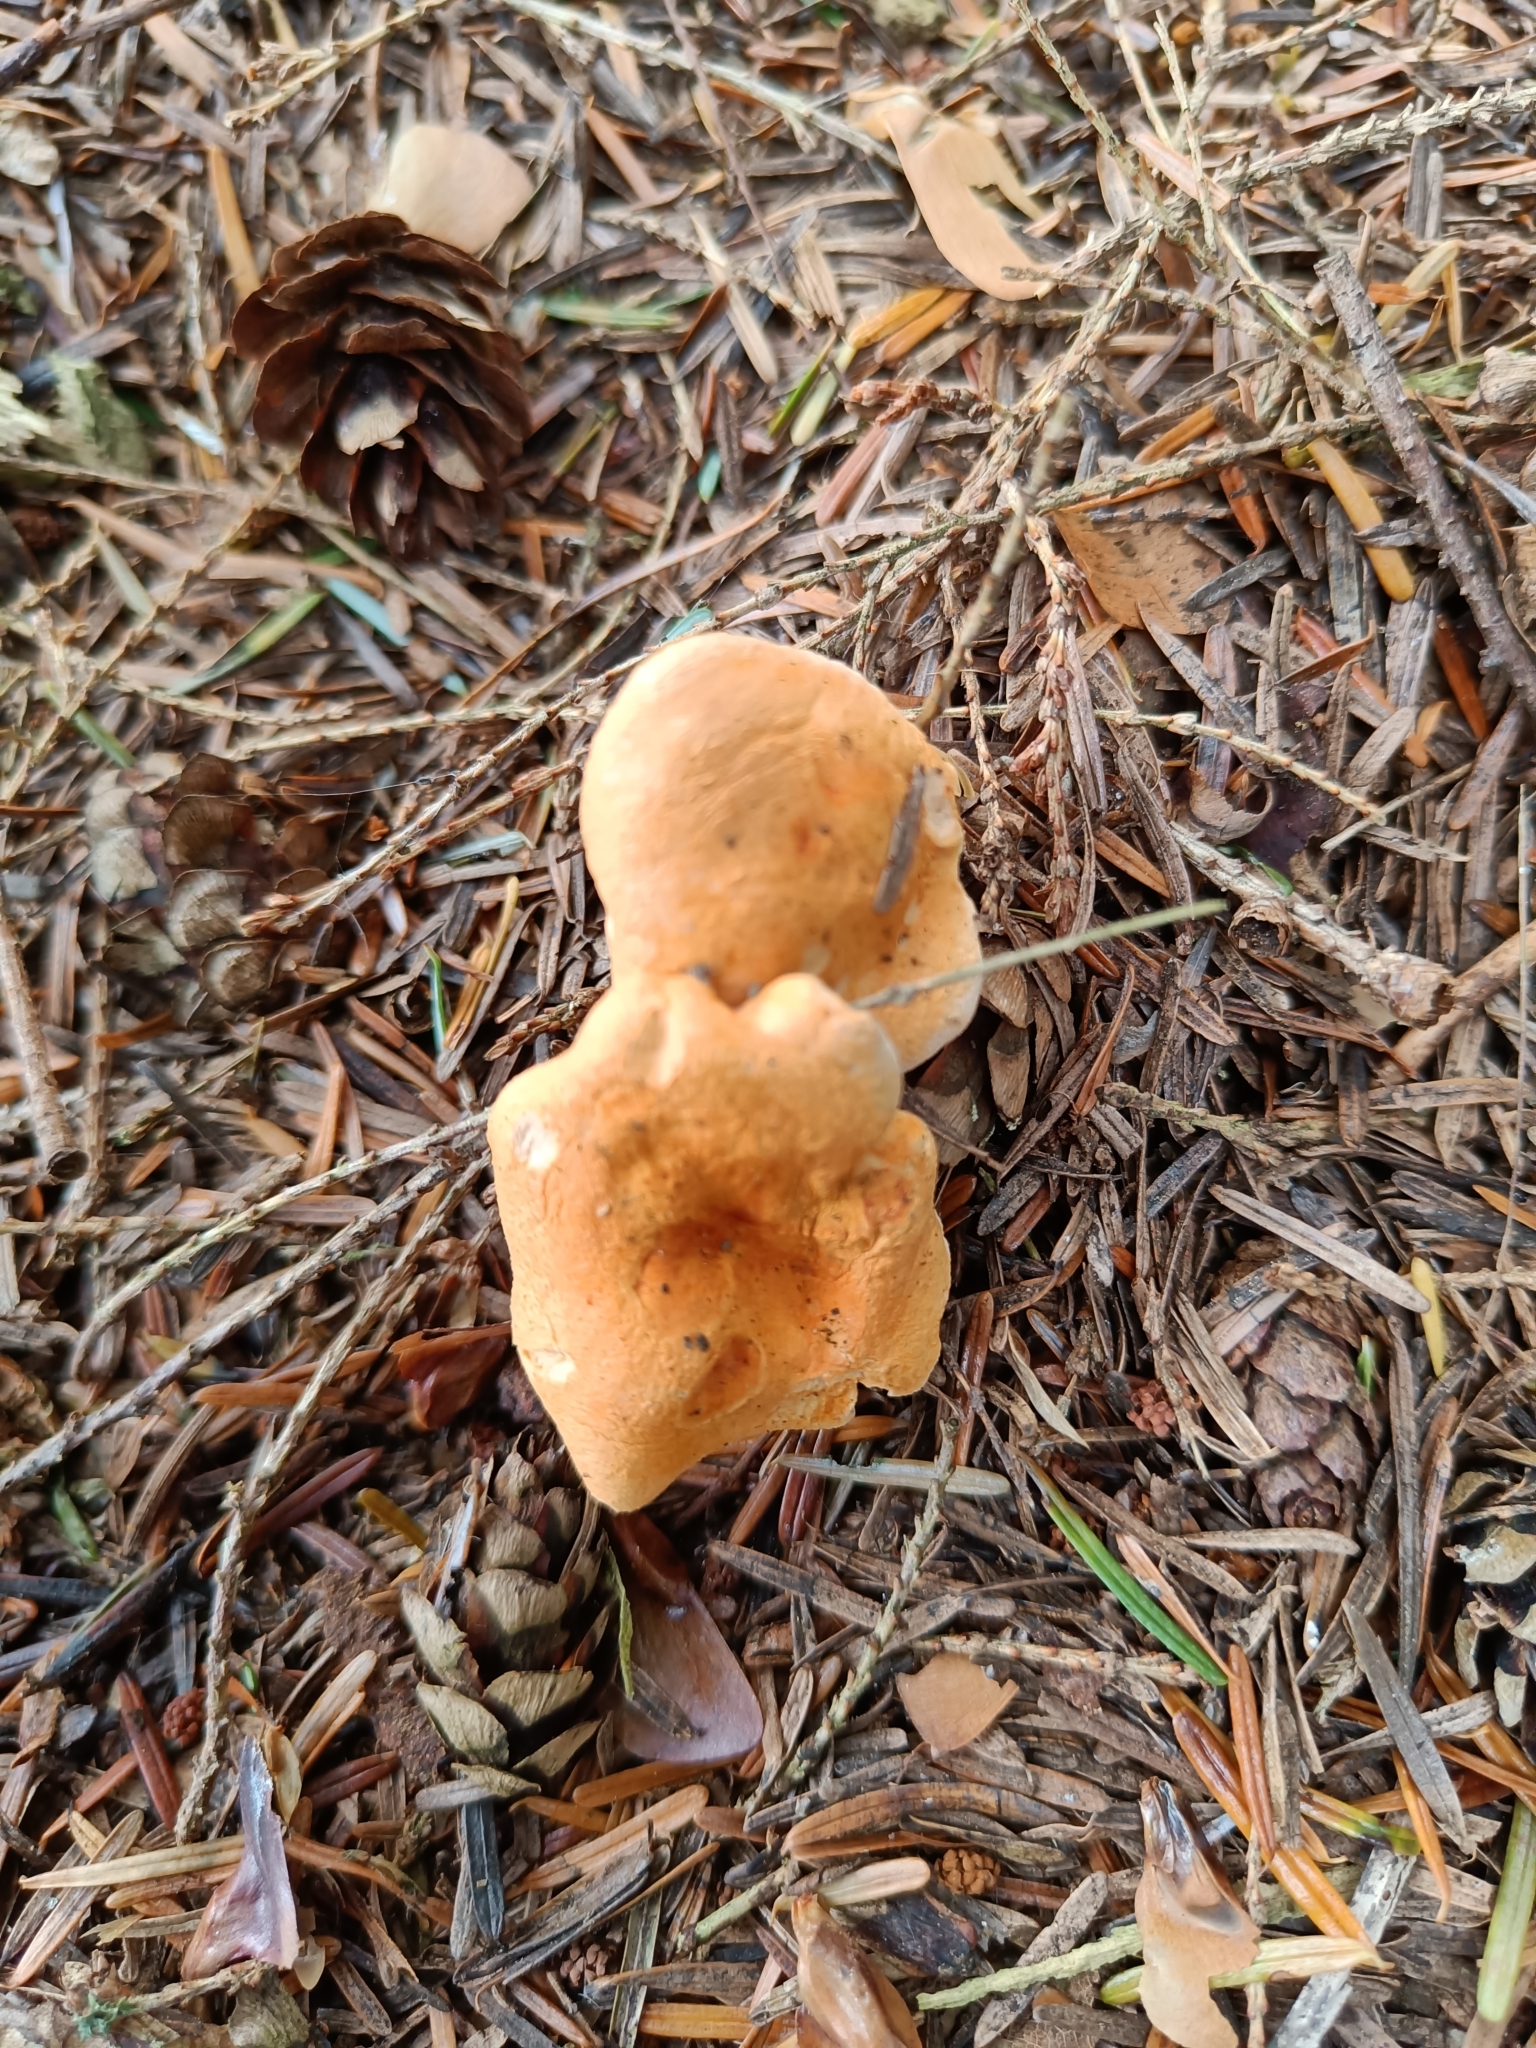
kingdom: Fungi
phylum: Basidiomycota
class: Agaricomycetes
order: Boletales
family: Hygrophoropsidaceae
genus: Hygrophoropsis
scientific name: Hygrophoropsis aurantiaca
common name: False chanterelle
